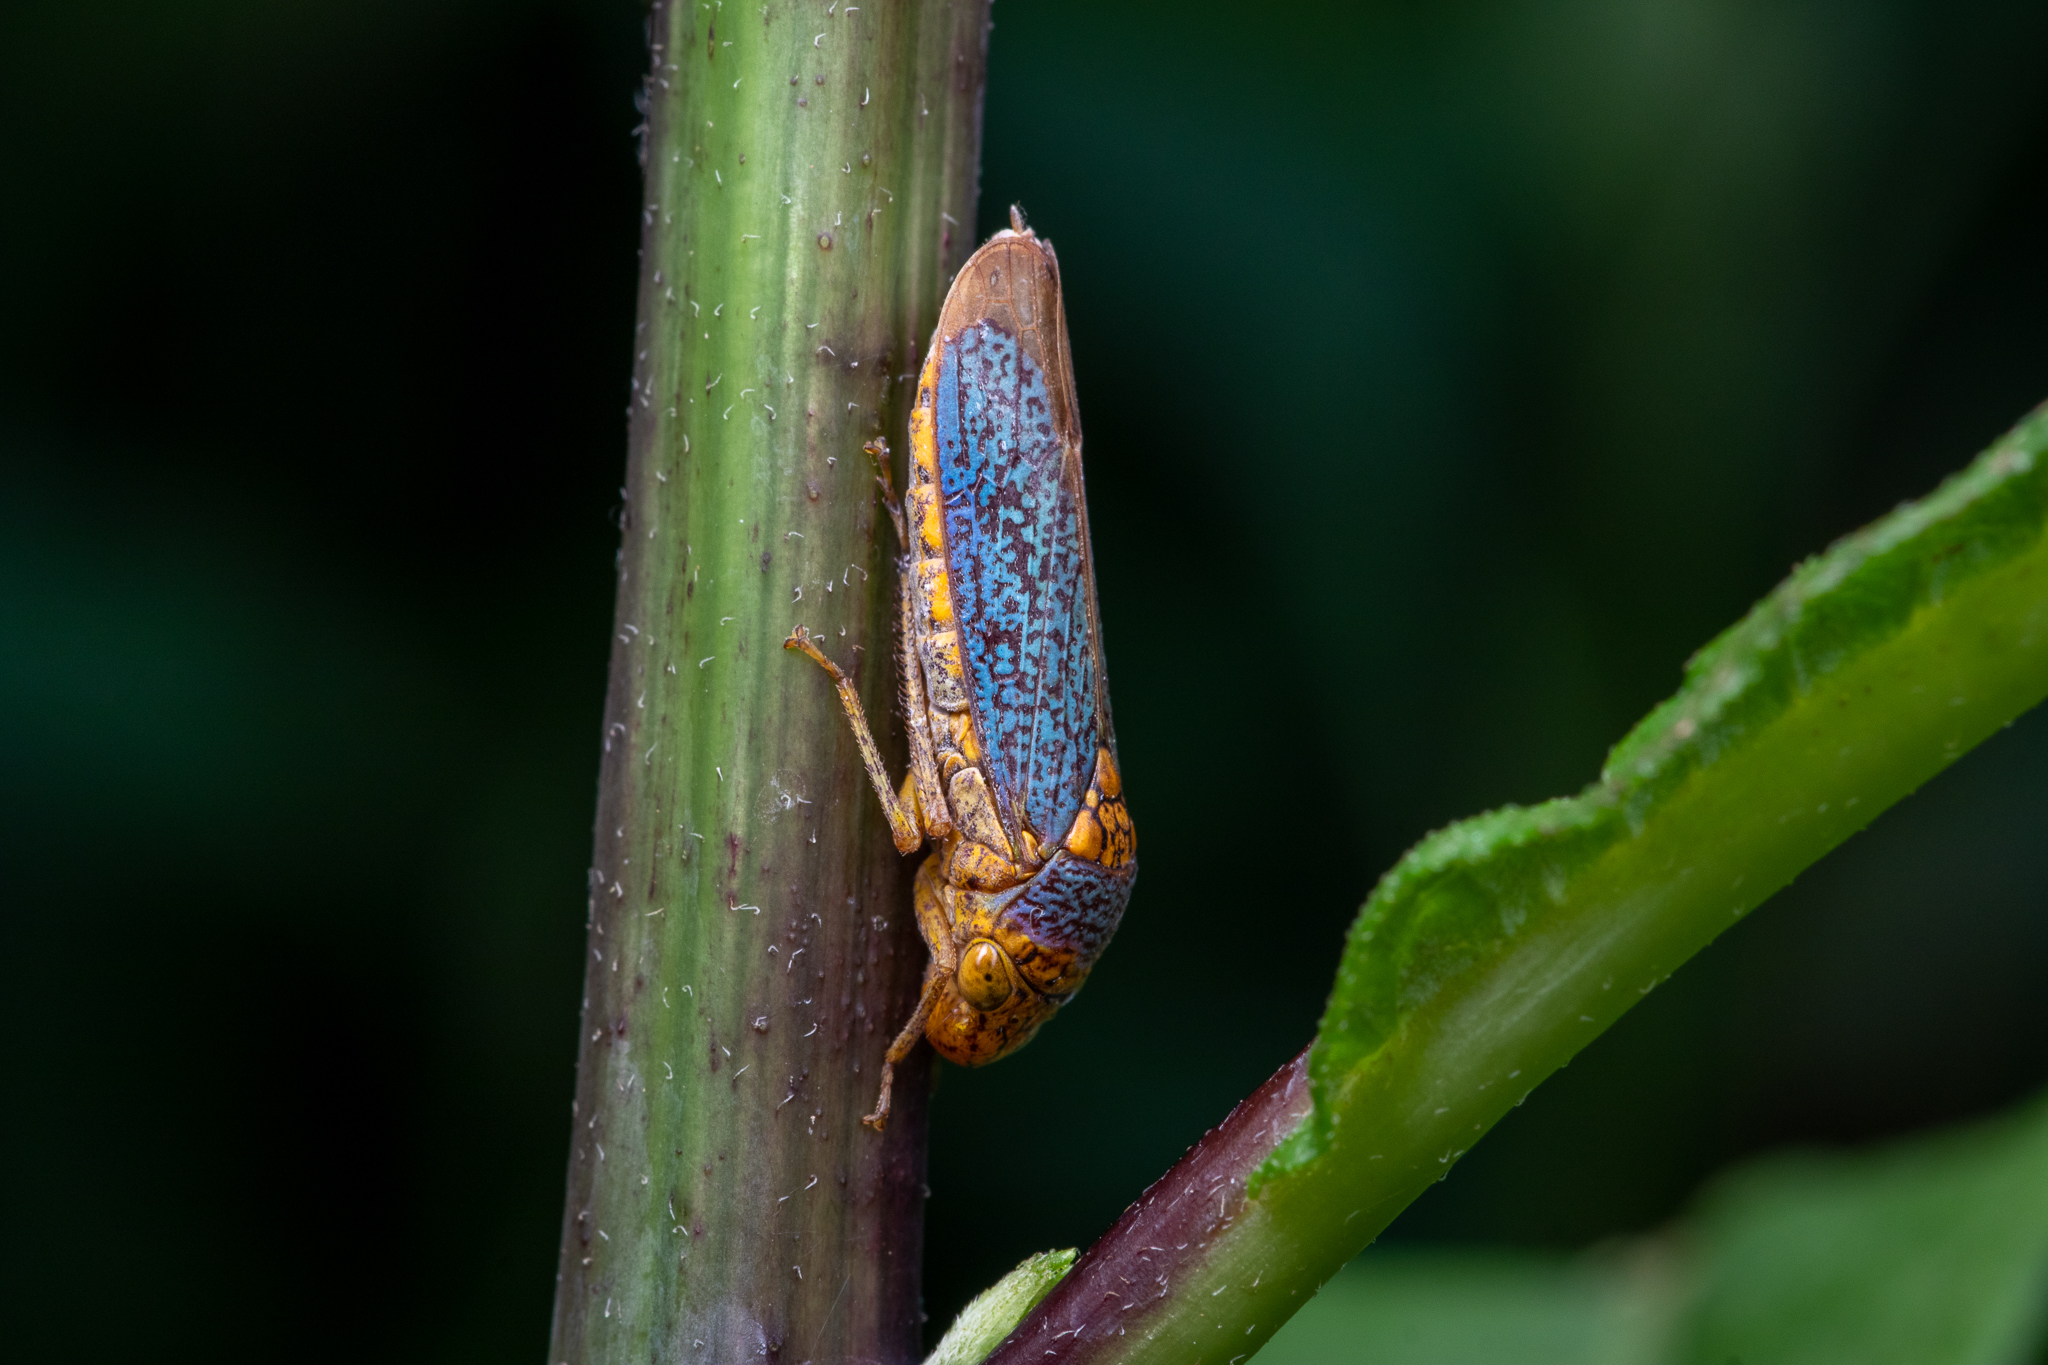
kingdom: Animalia
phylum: Arthropoda
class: Insecta
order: Hemiptera
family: Cicadellidae
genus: Oncometopia
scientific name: Oncometopia orbona
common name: Broad-headed sharpshooter
